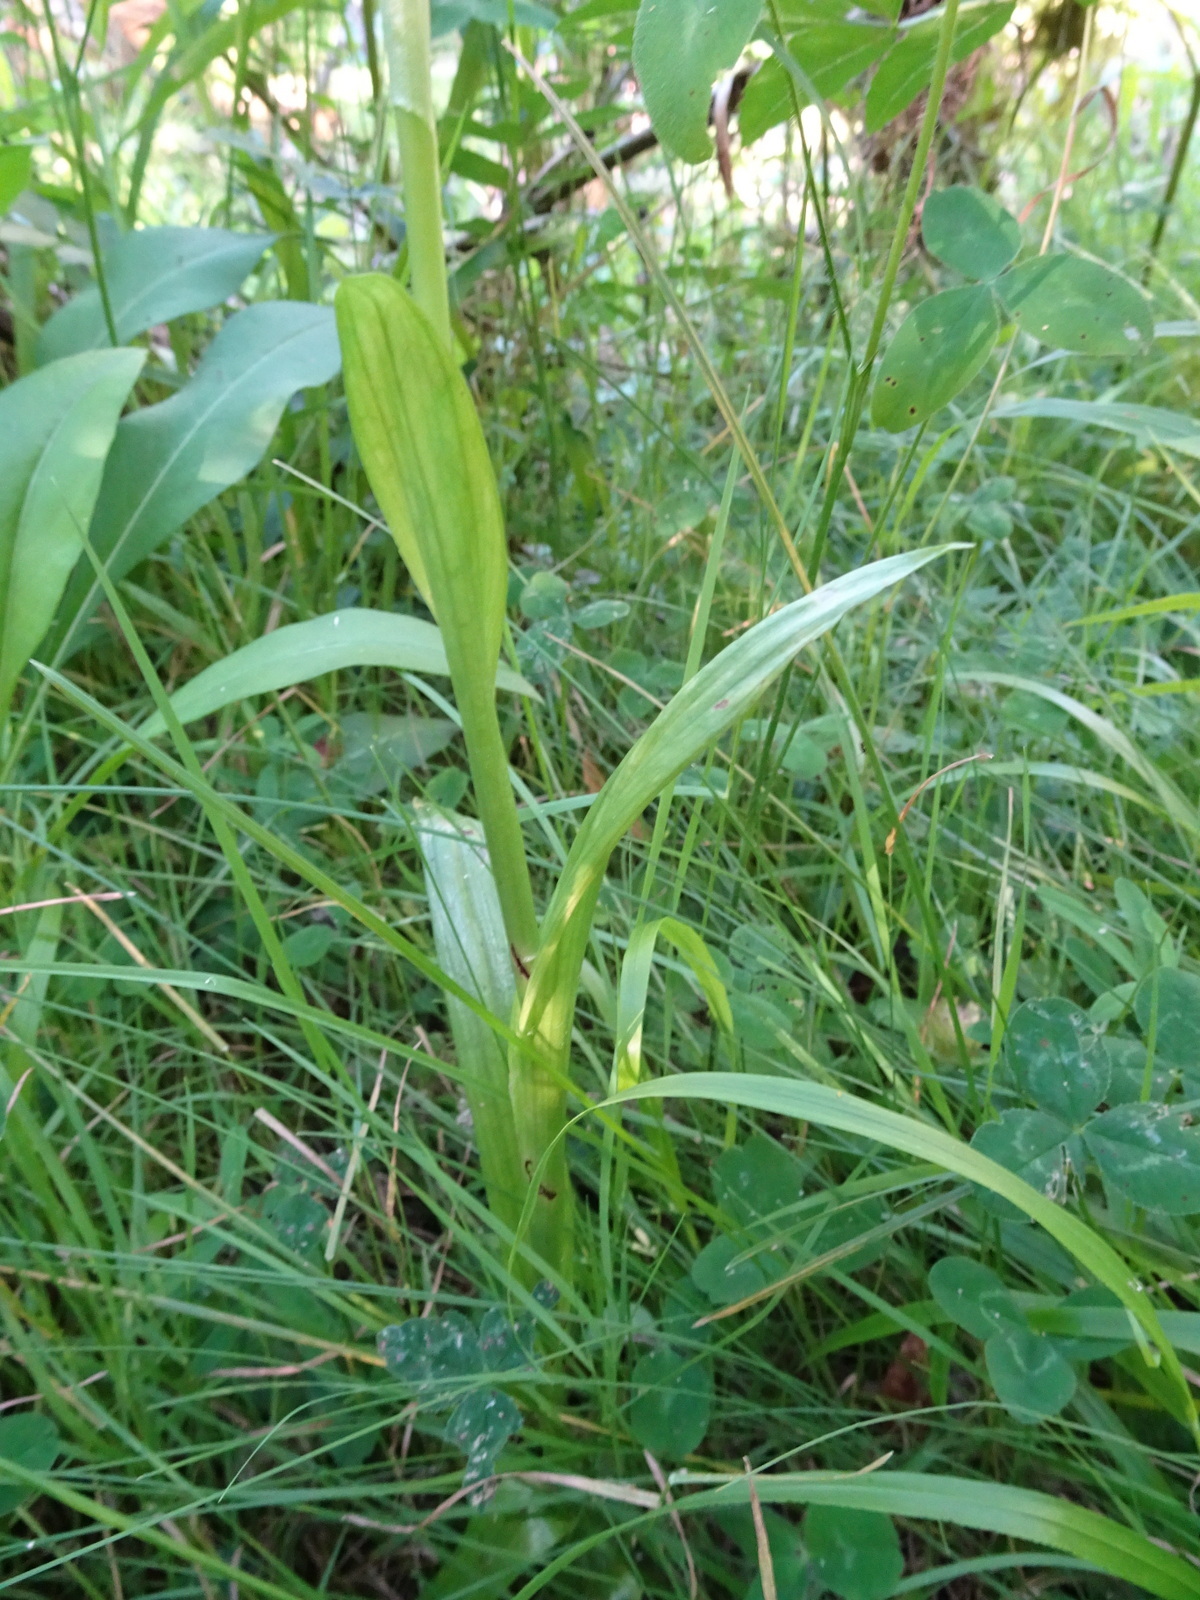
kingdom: Plantae
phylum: Tracheophyta
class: Liliopsida
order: Asparagales
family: Orchidaceae
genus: Gymnadenia
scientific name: Gymnadenia conopsea
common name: Fragrant orchid
